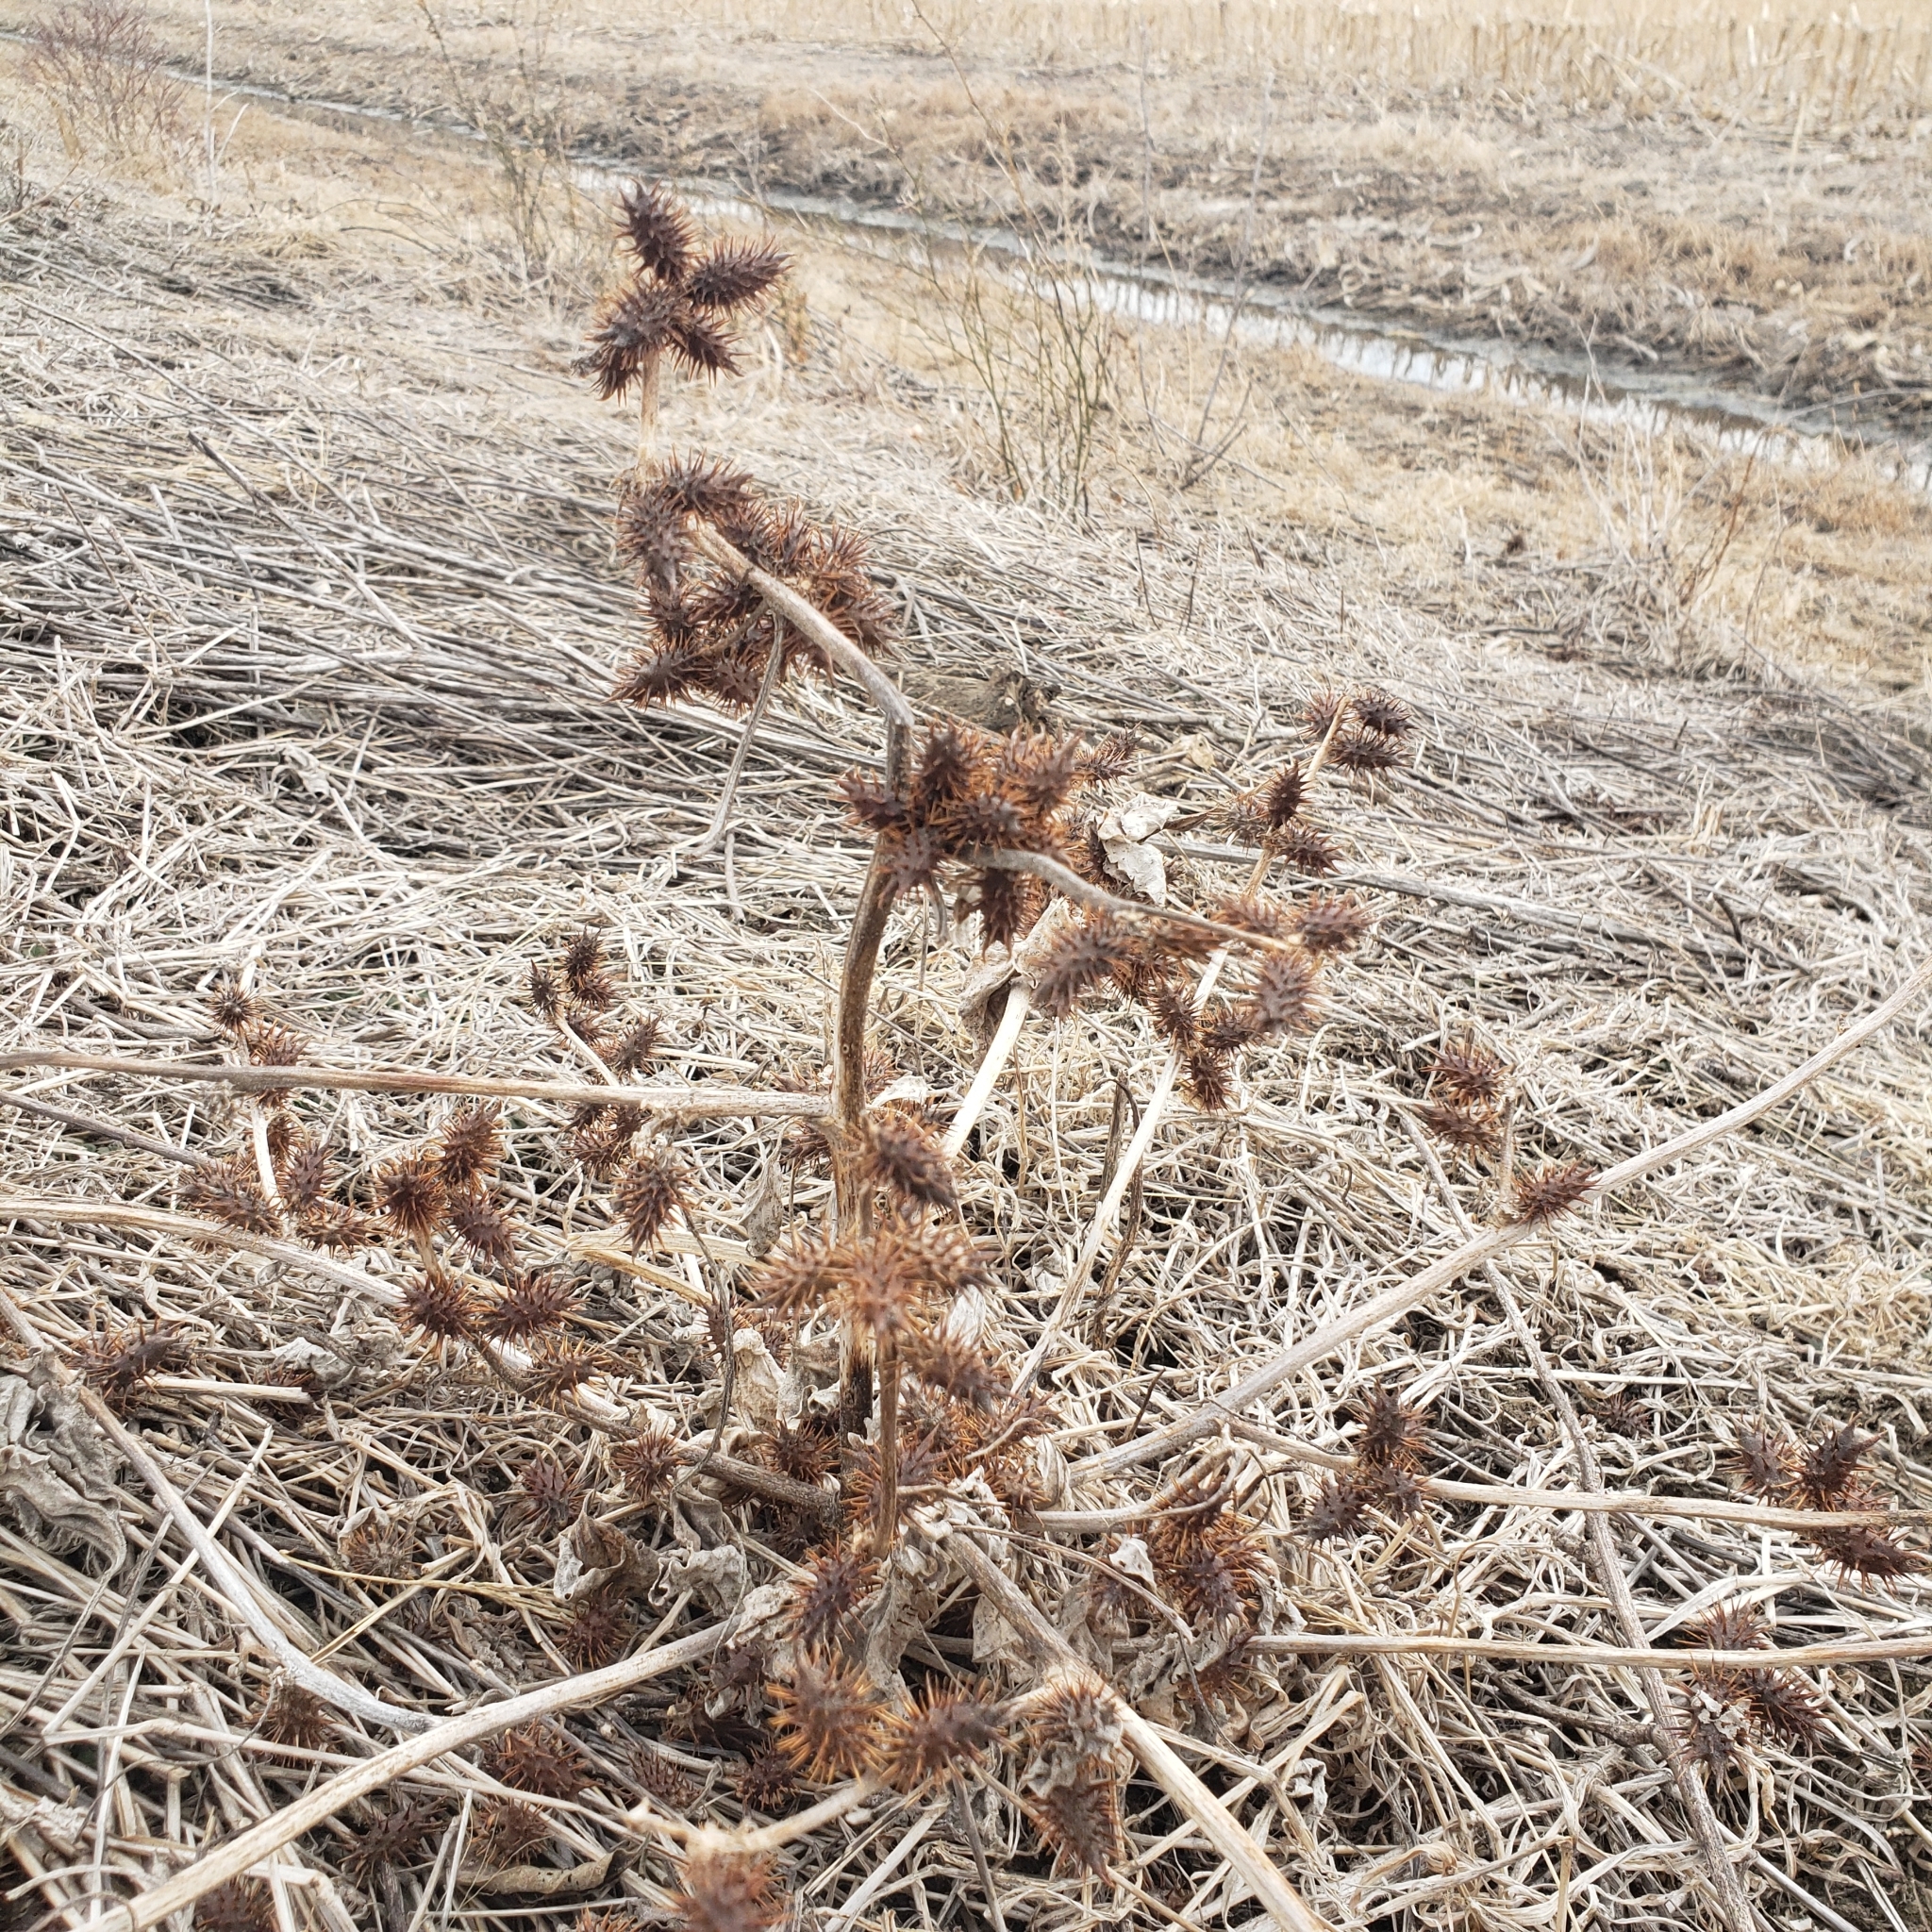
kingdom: Plantae
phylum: Tracheophyta
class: Magnoliopsida
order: Asterales
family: Asteraceae
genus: Xanthium
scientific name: Xanthium strumarium
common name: Rough cocklebur
